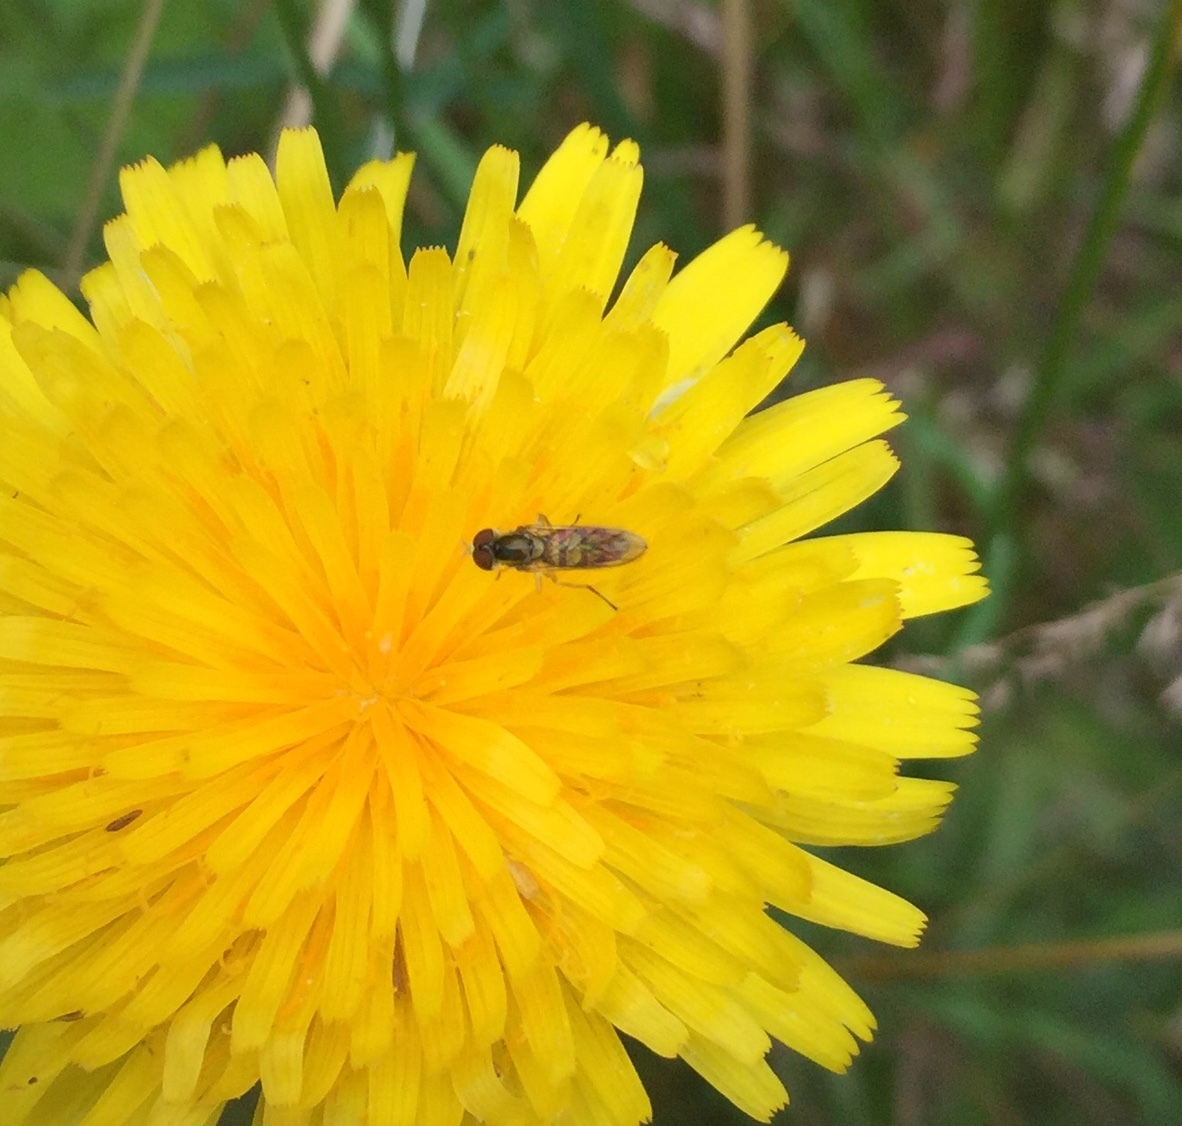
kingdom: Animalia
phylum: Arthropoda
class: Insecta
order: Diptera
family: Syrphidae
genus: Toxomerus
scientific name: Toxomerus marginatus
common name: Syrphid fly
